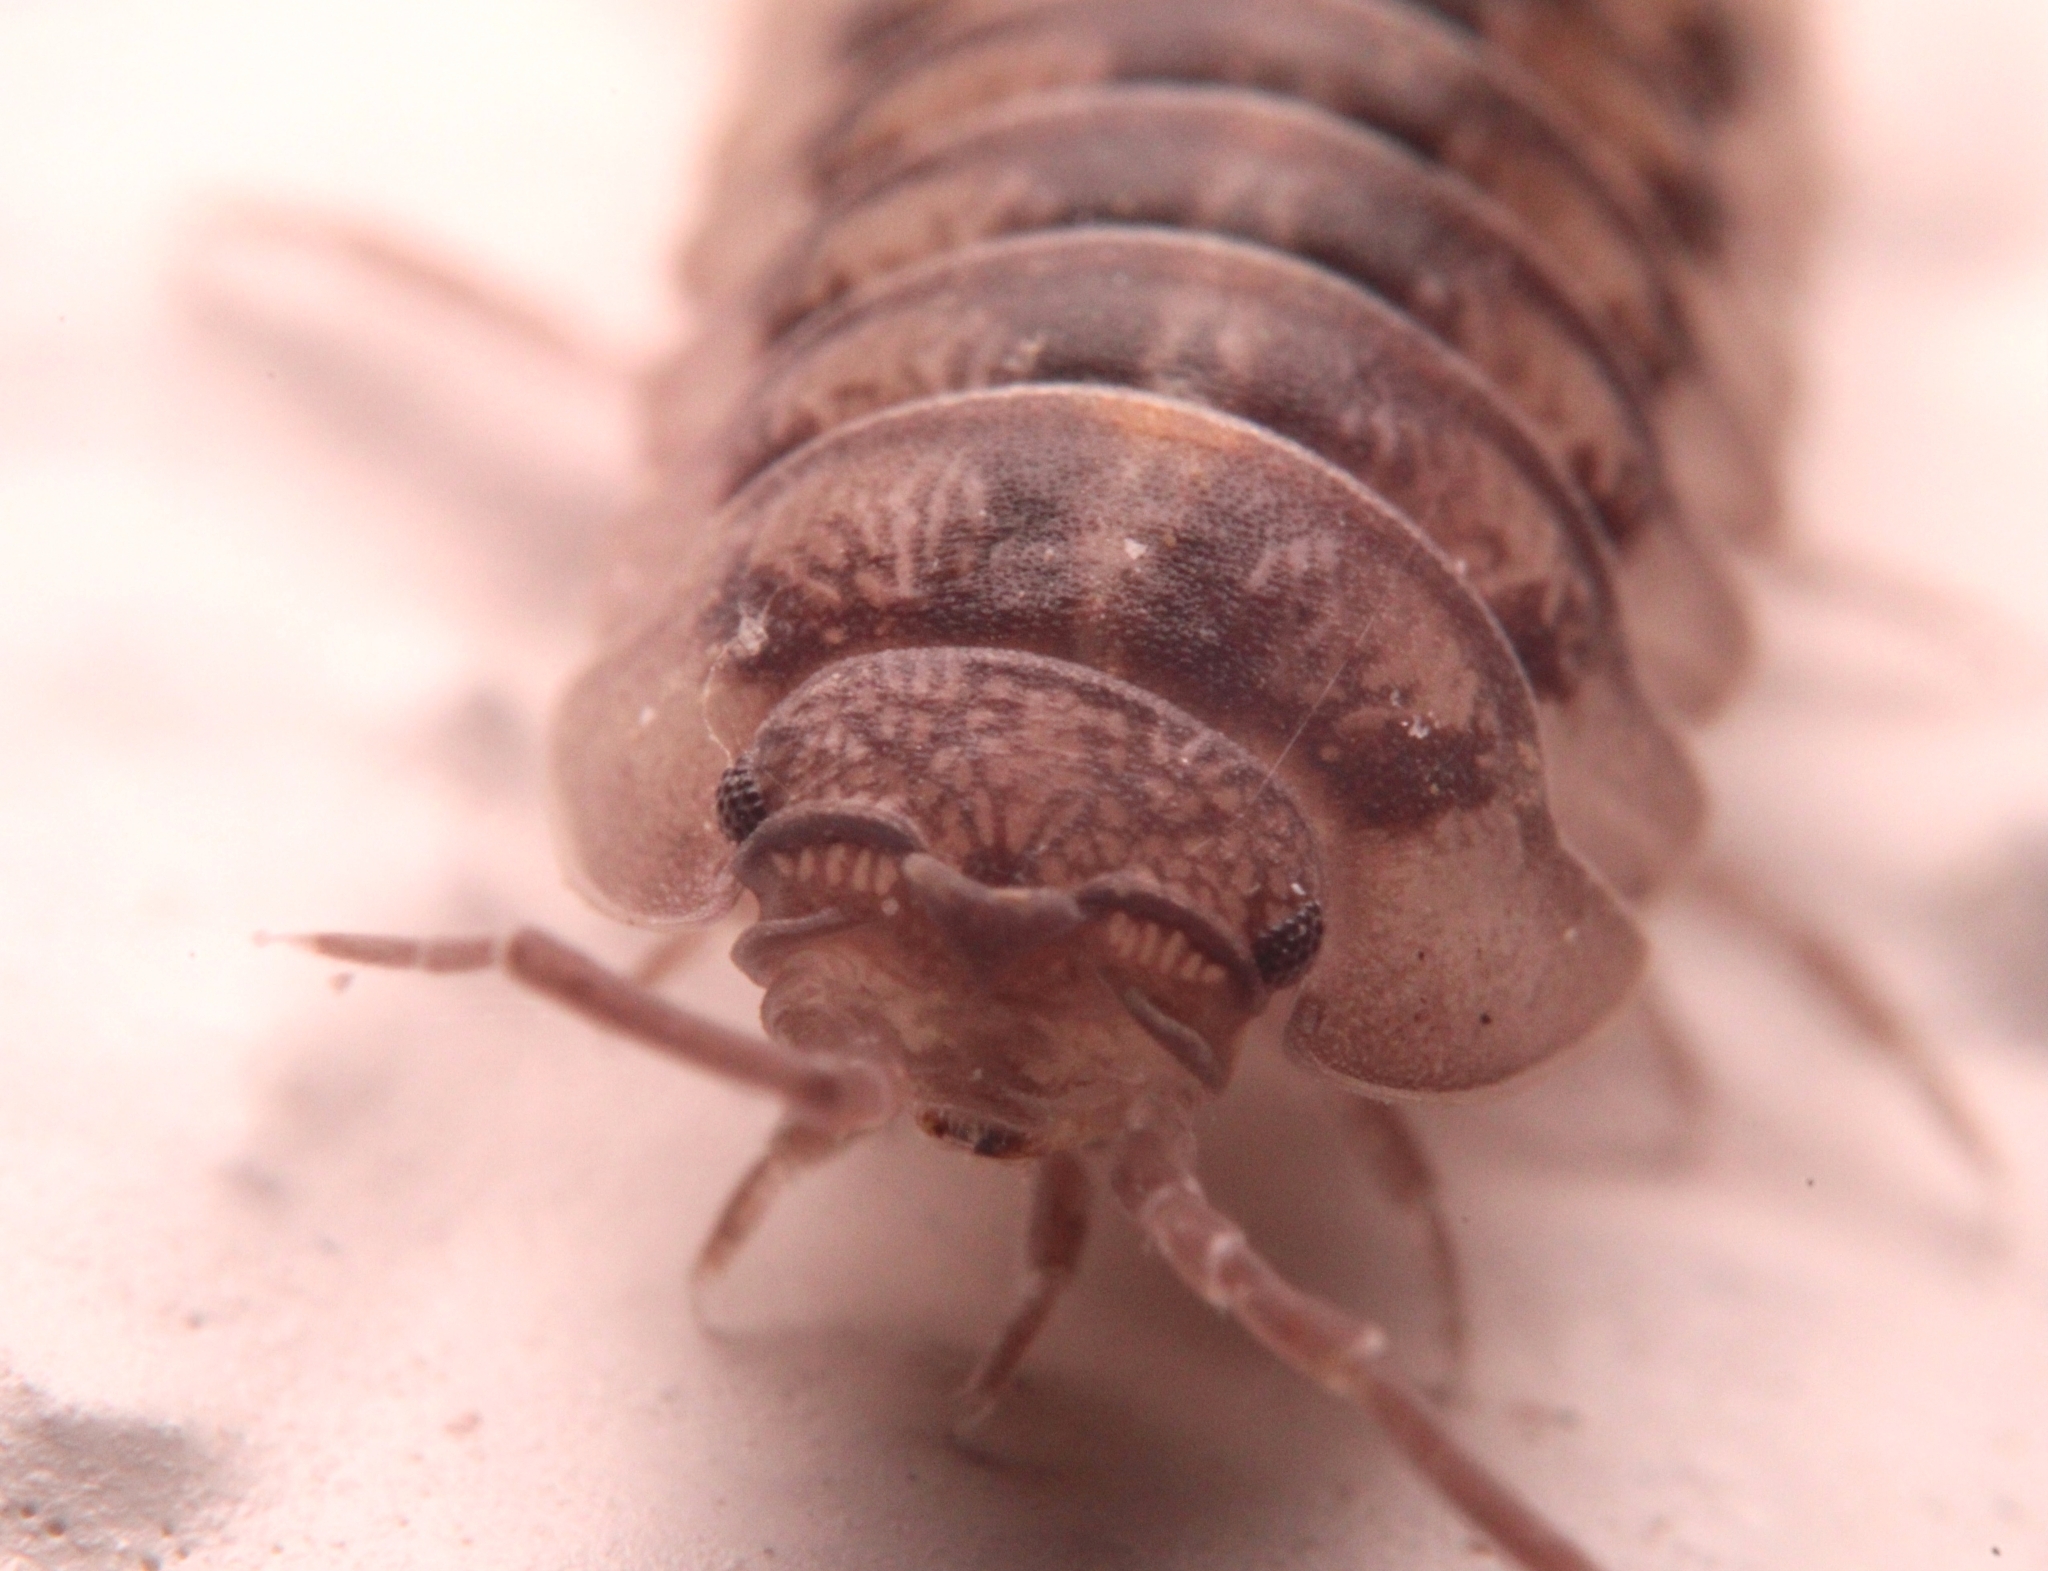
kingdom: Animalia
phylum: Arthropoda
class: Malacostraca
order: Isopoda
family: Armadillidiidae
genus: Armadillidium
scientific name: Armadillidium nasatum
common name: Isopod
